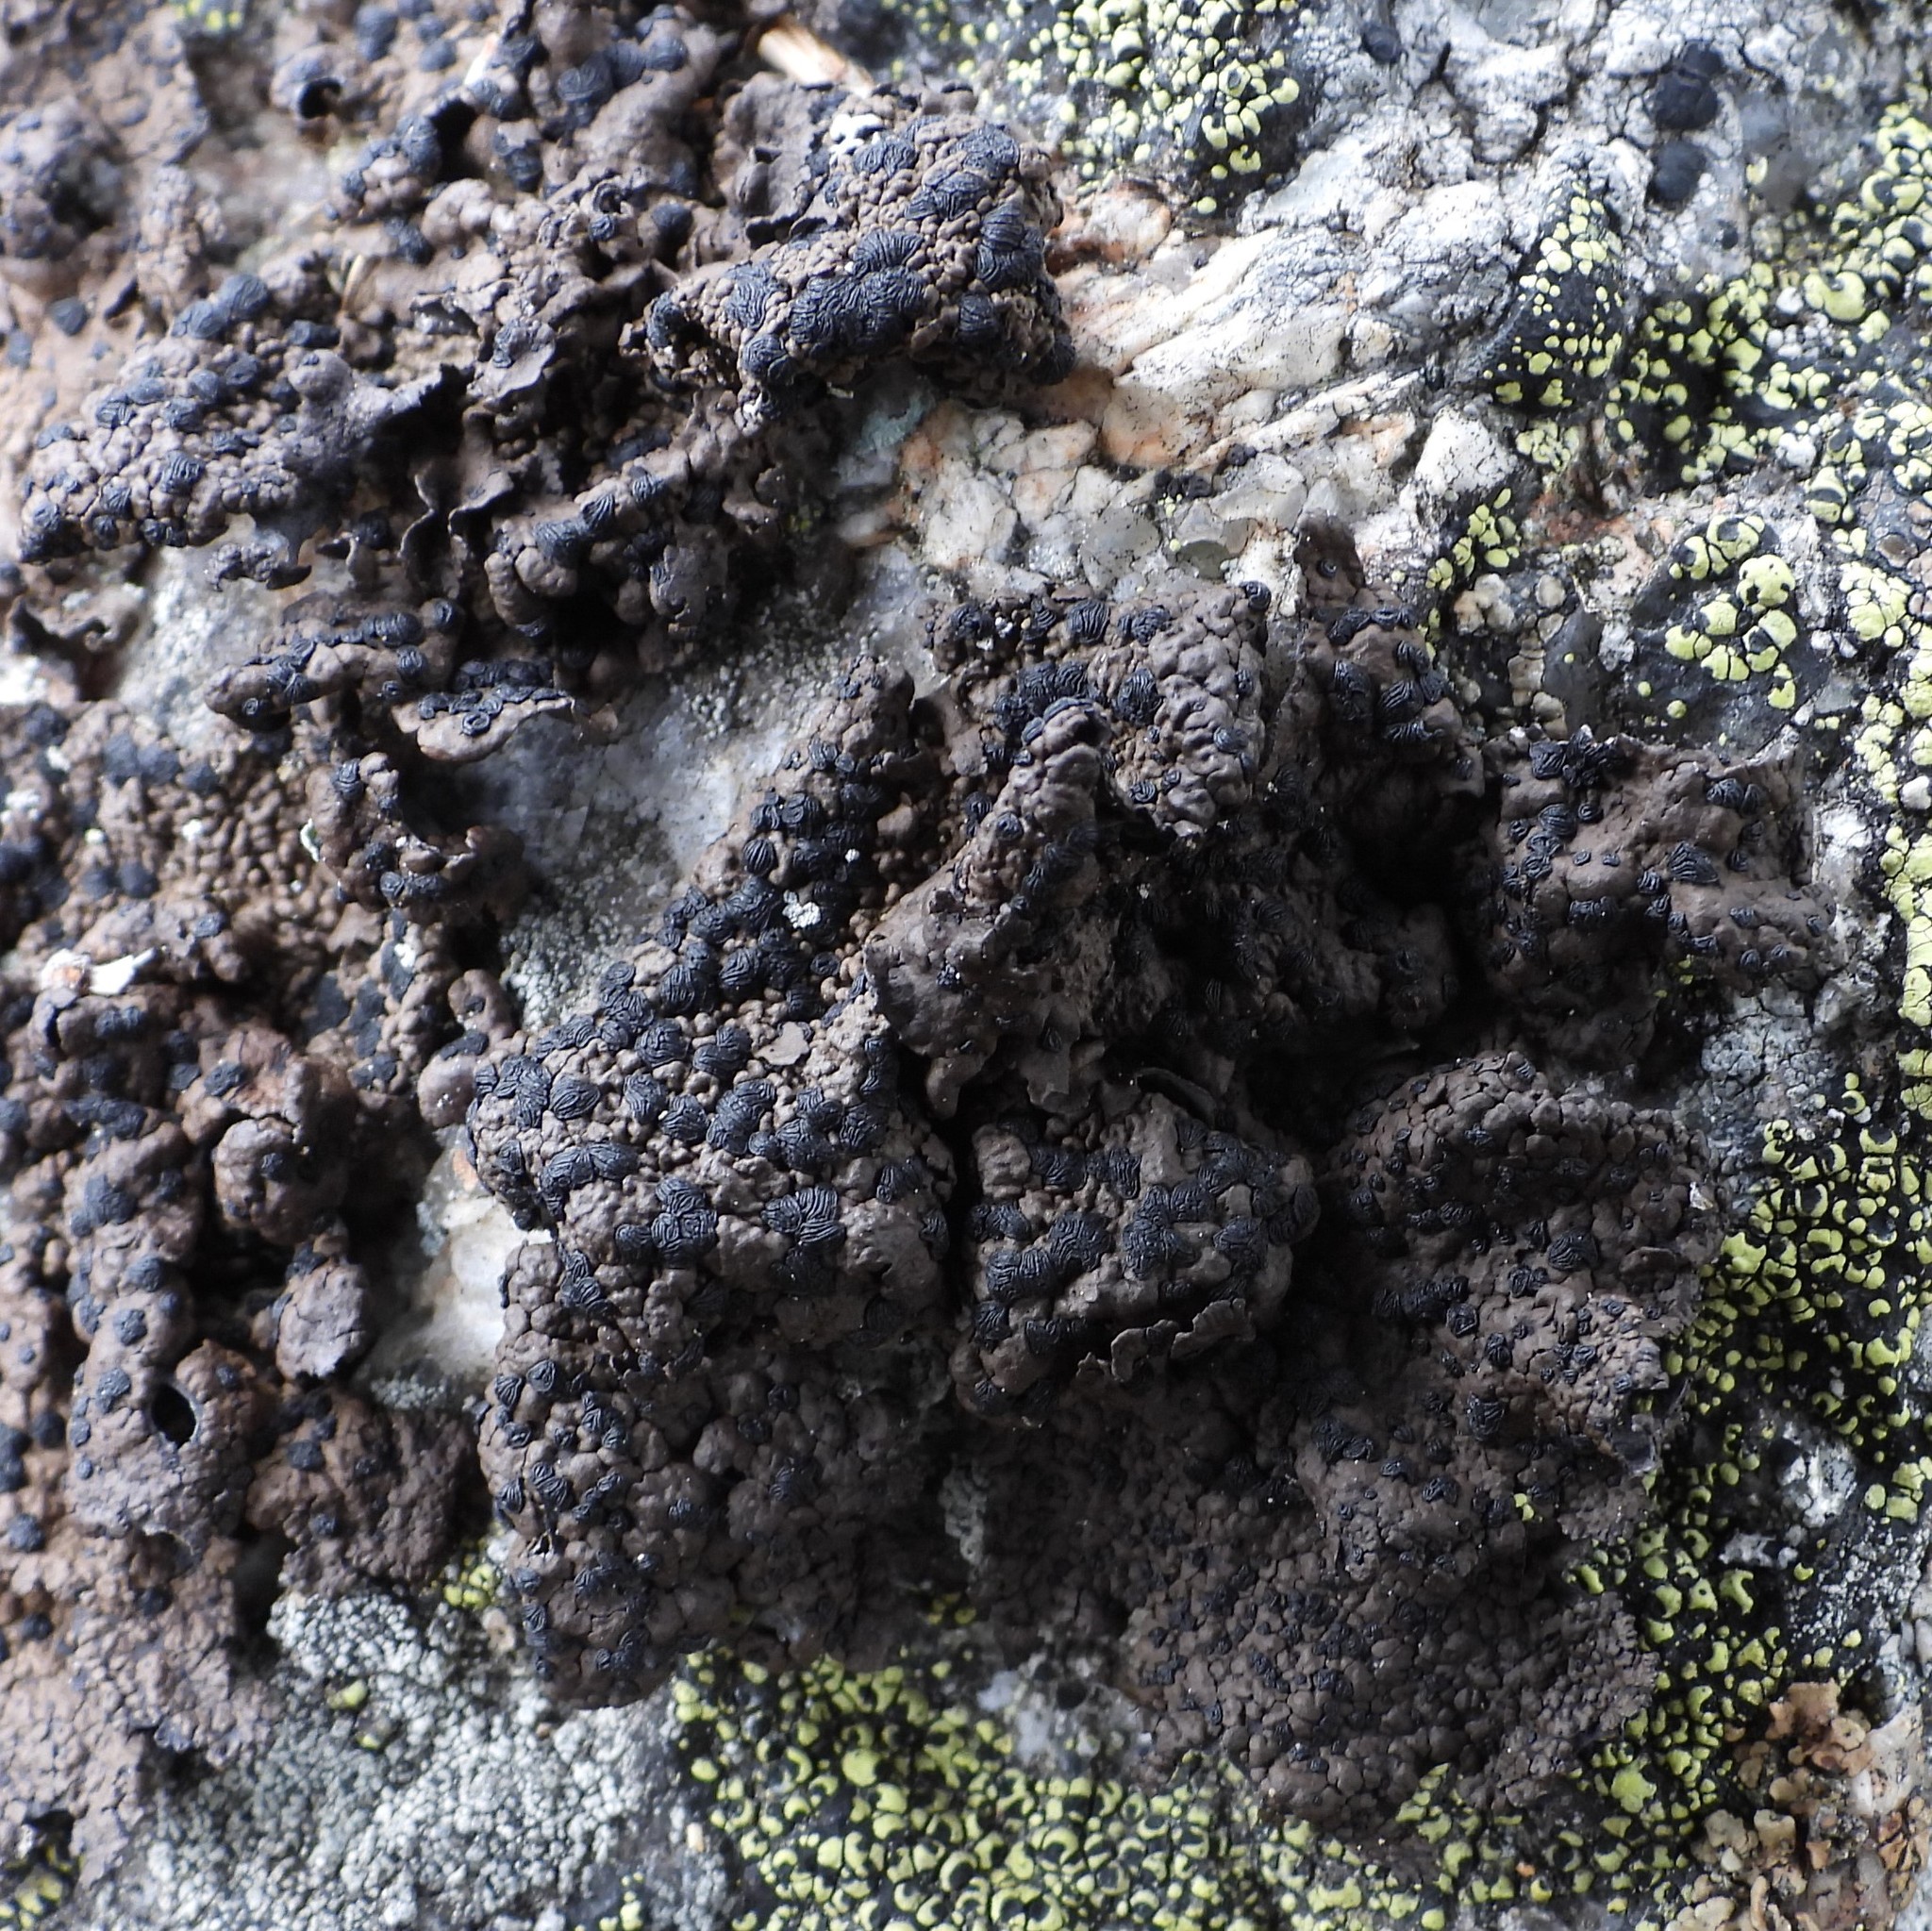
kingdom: Fungi
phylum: Ascomycota
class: Lecanoromycetes
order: Umbilicariales
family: Umbilicariaceae
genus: Umbilicaria
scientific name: Umbilicaria hyperborea
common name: Blistered rock tripe
